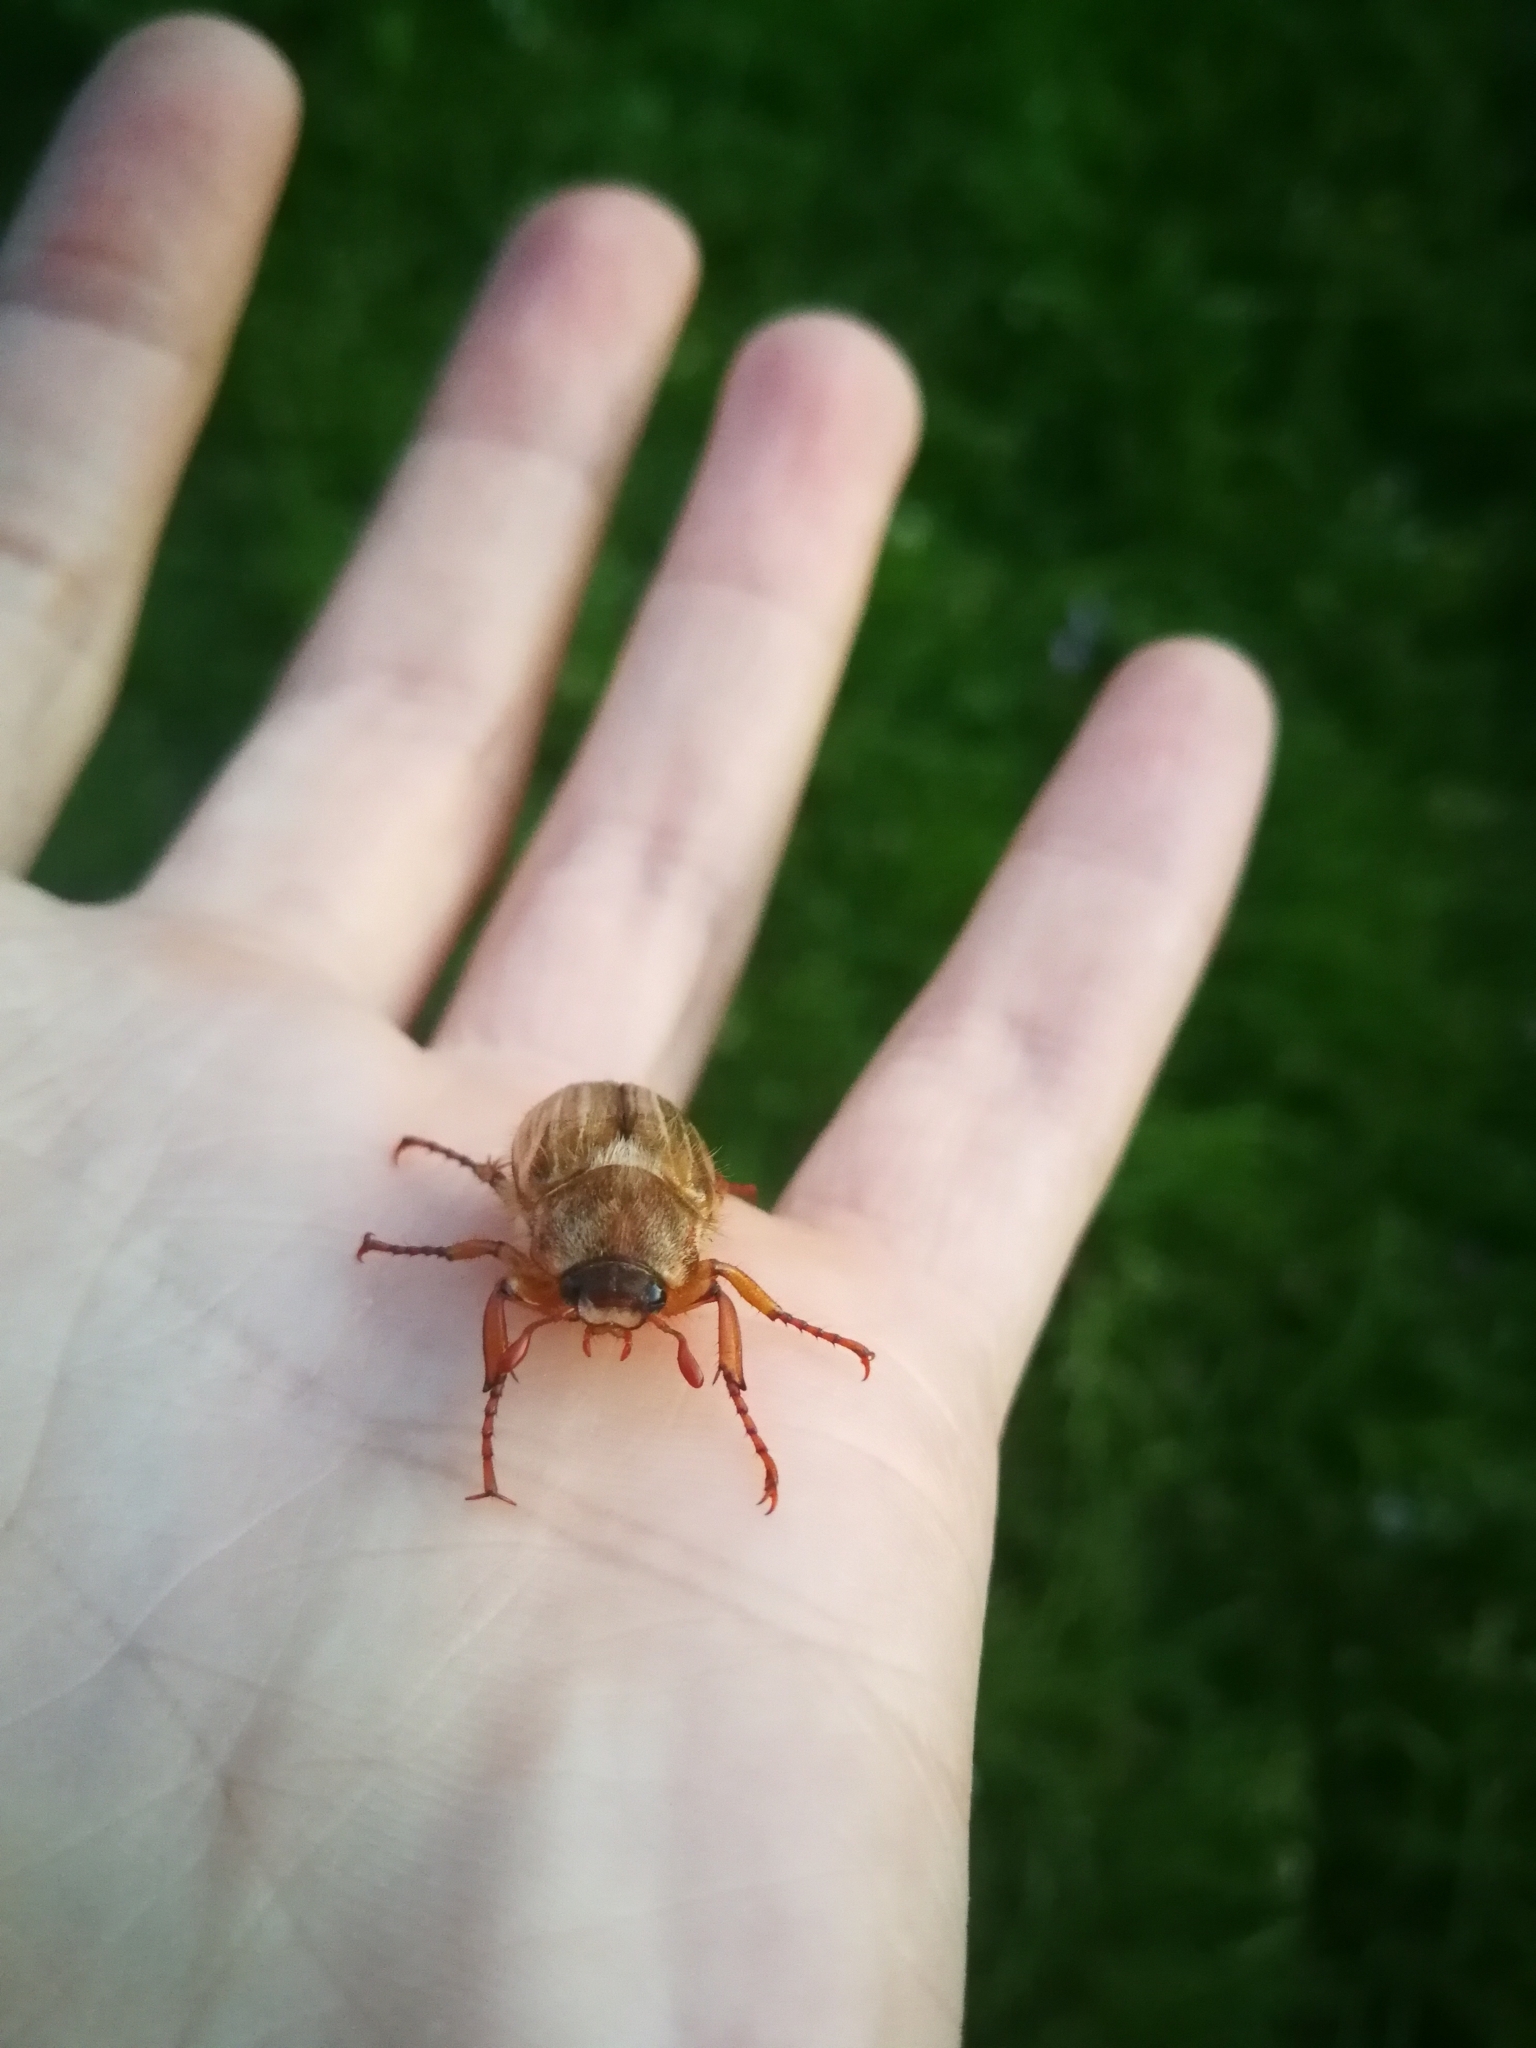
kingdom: Animalia
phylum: Arthropoda
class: Insecta
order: Coleoptera
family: Scarabaeidae
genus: Amphimallon
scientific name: Amphimallon solstitiale
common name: Summer chafer
